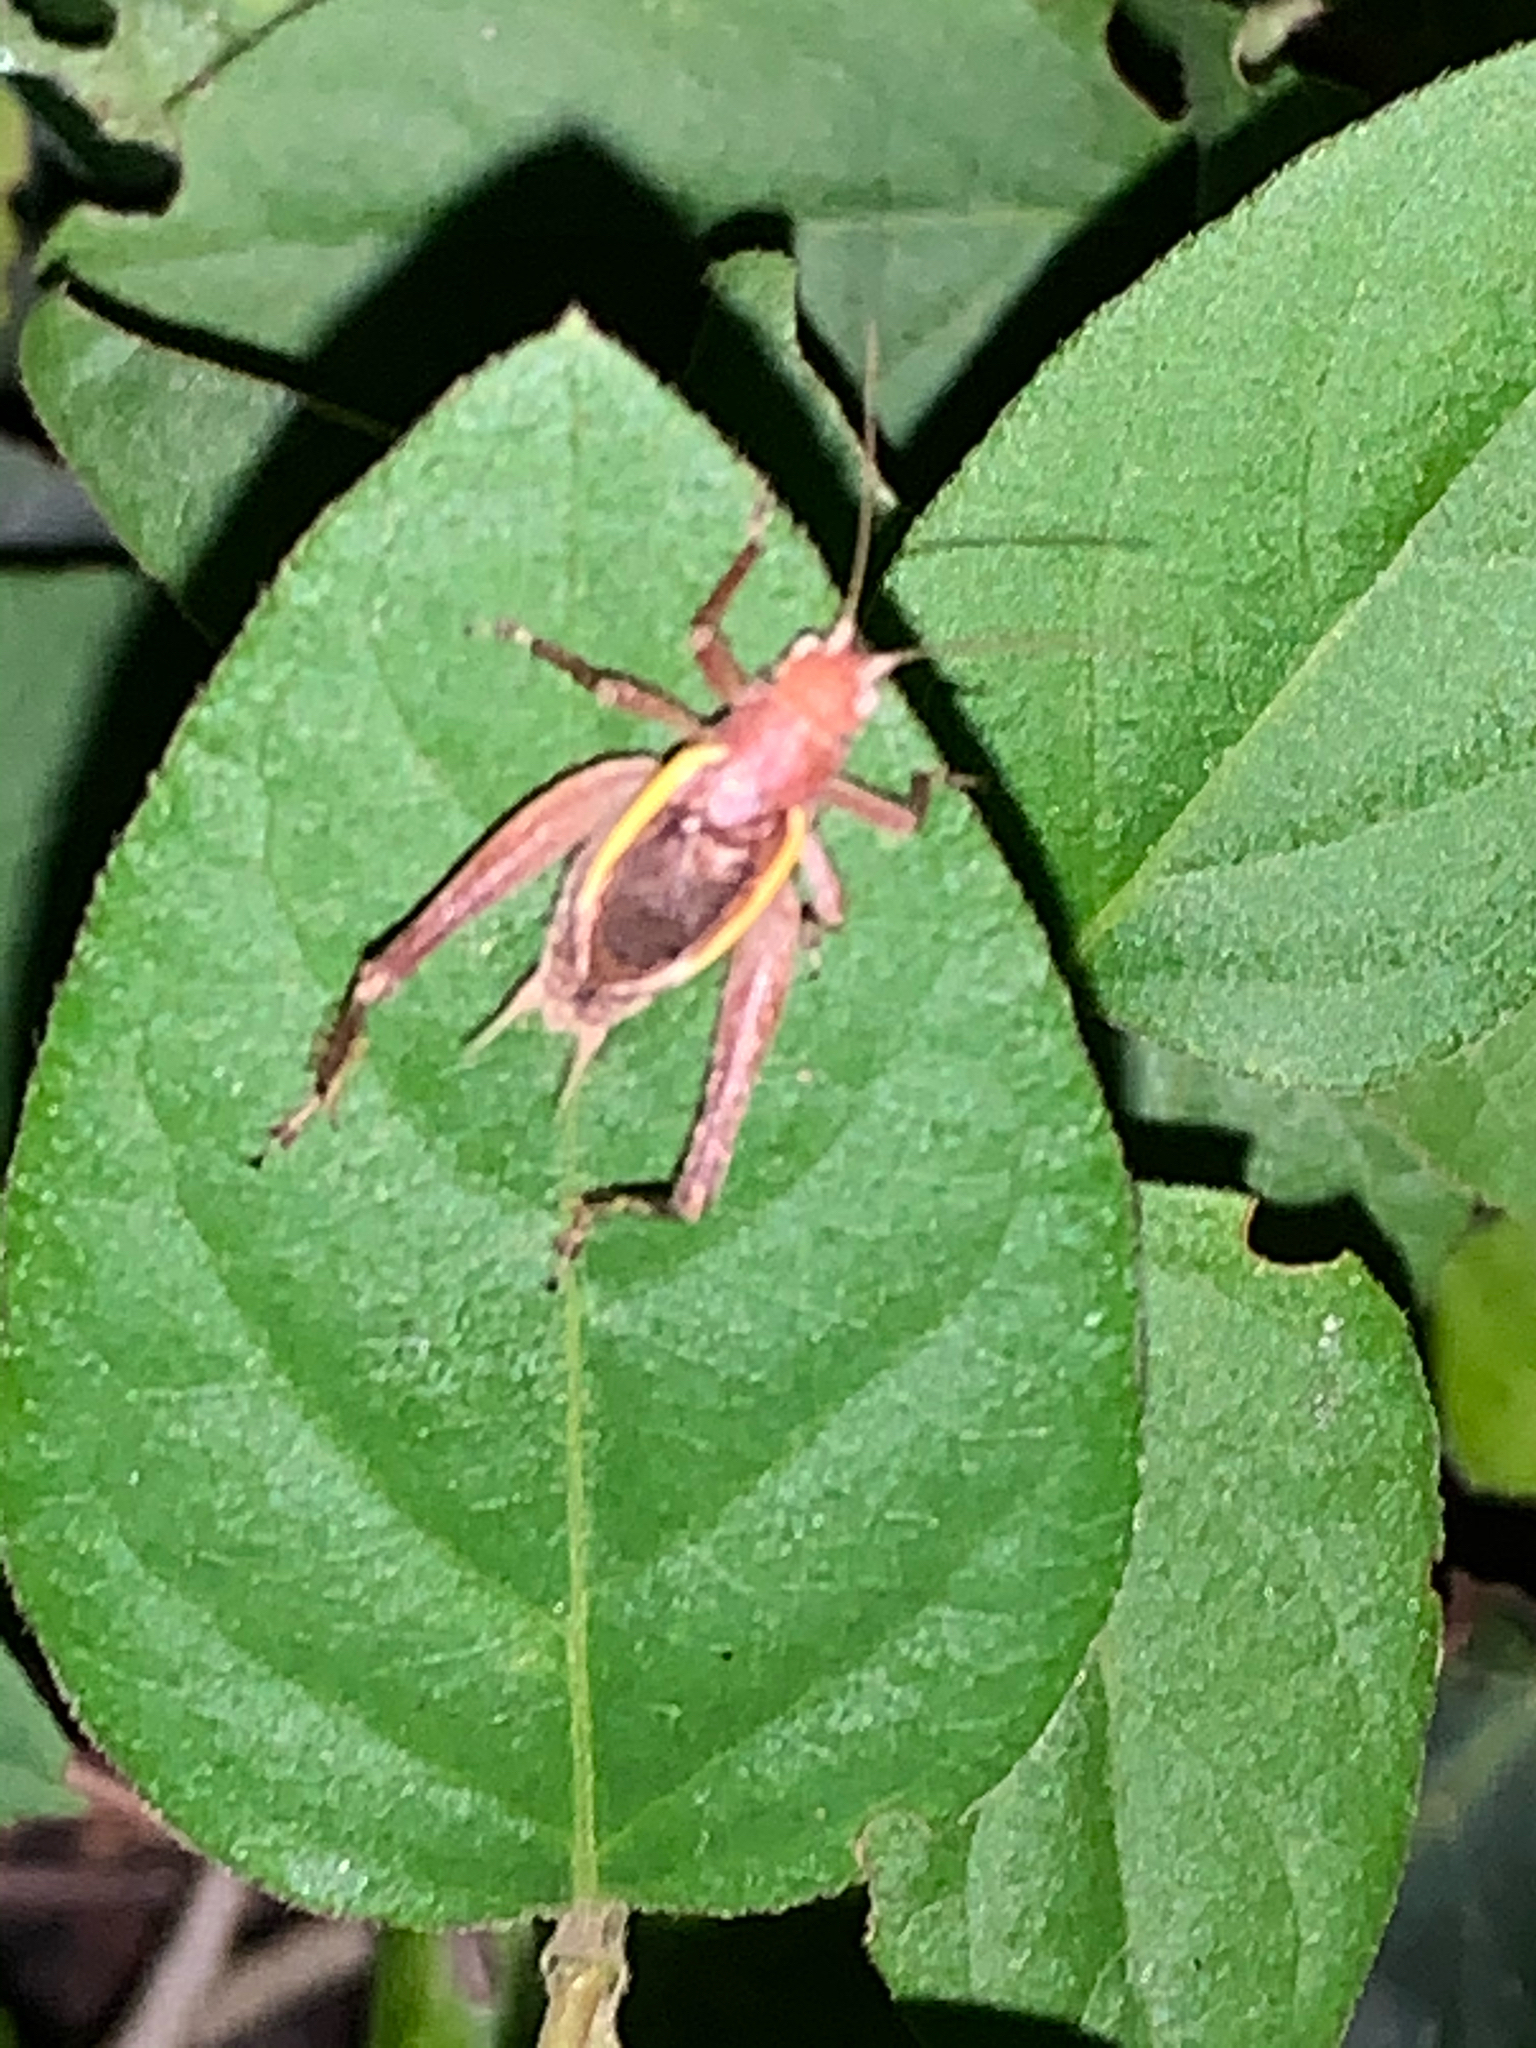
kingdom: Animalia
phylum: Arthropoda
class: Insecta
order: Orthoptera
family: Gryllidae
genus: Hapithus
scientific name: Hapithus agitator
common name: Restless bush cricket
